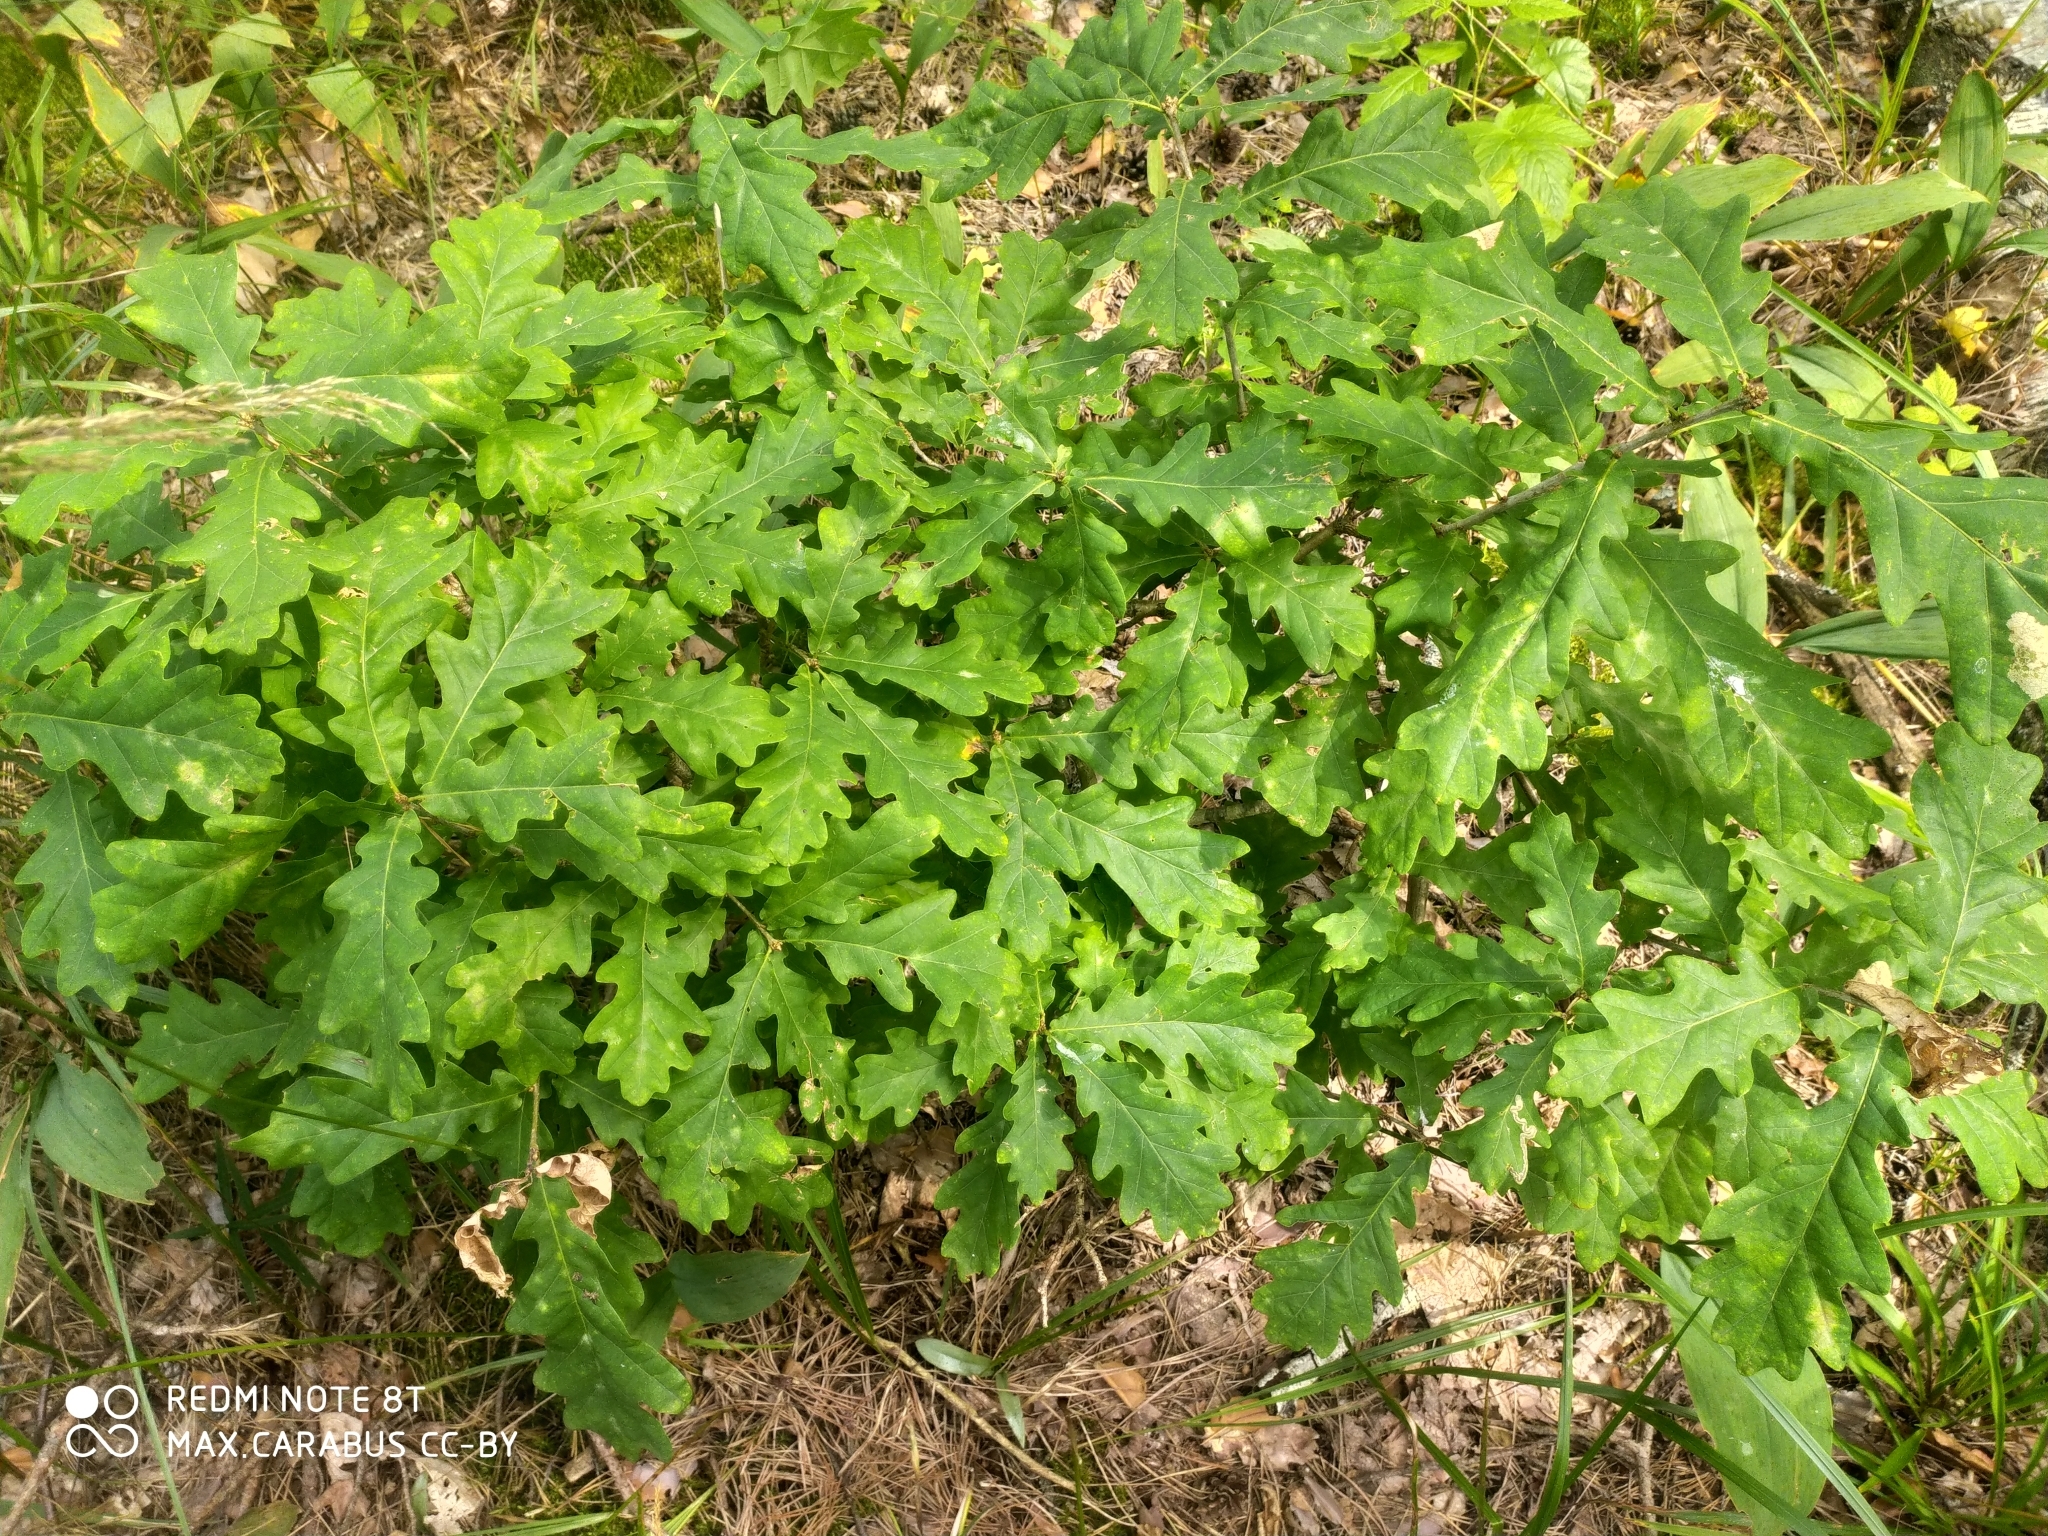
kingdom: Plantae
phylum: Tracheophyta
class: Magnoliopsida
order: Fagales
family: Fagaceae
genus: Quercus
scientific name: Quercus robur
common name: Pedunculate oak
